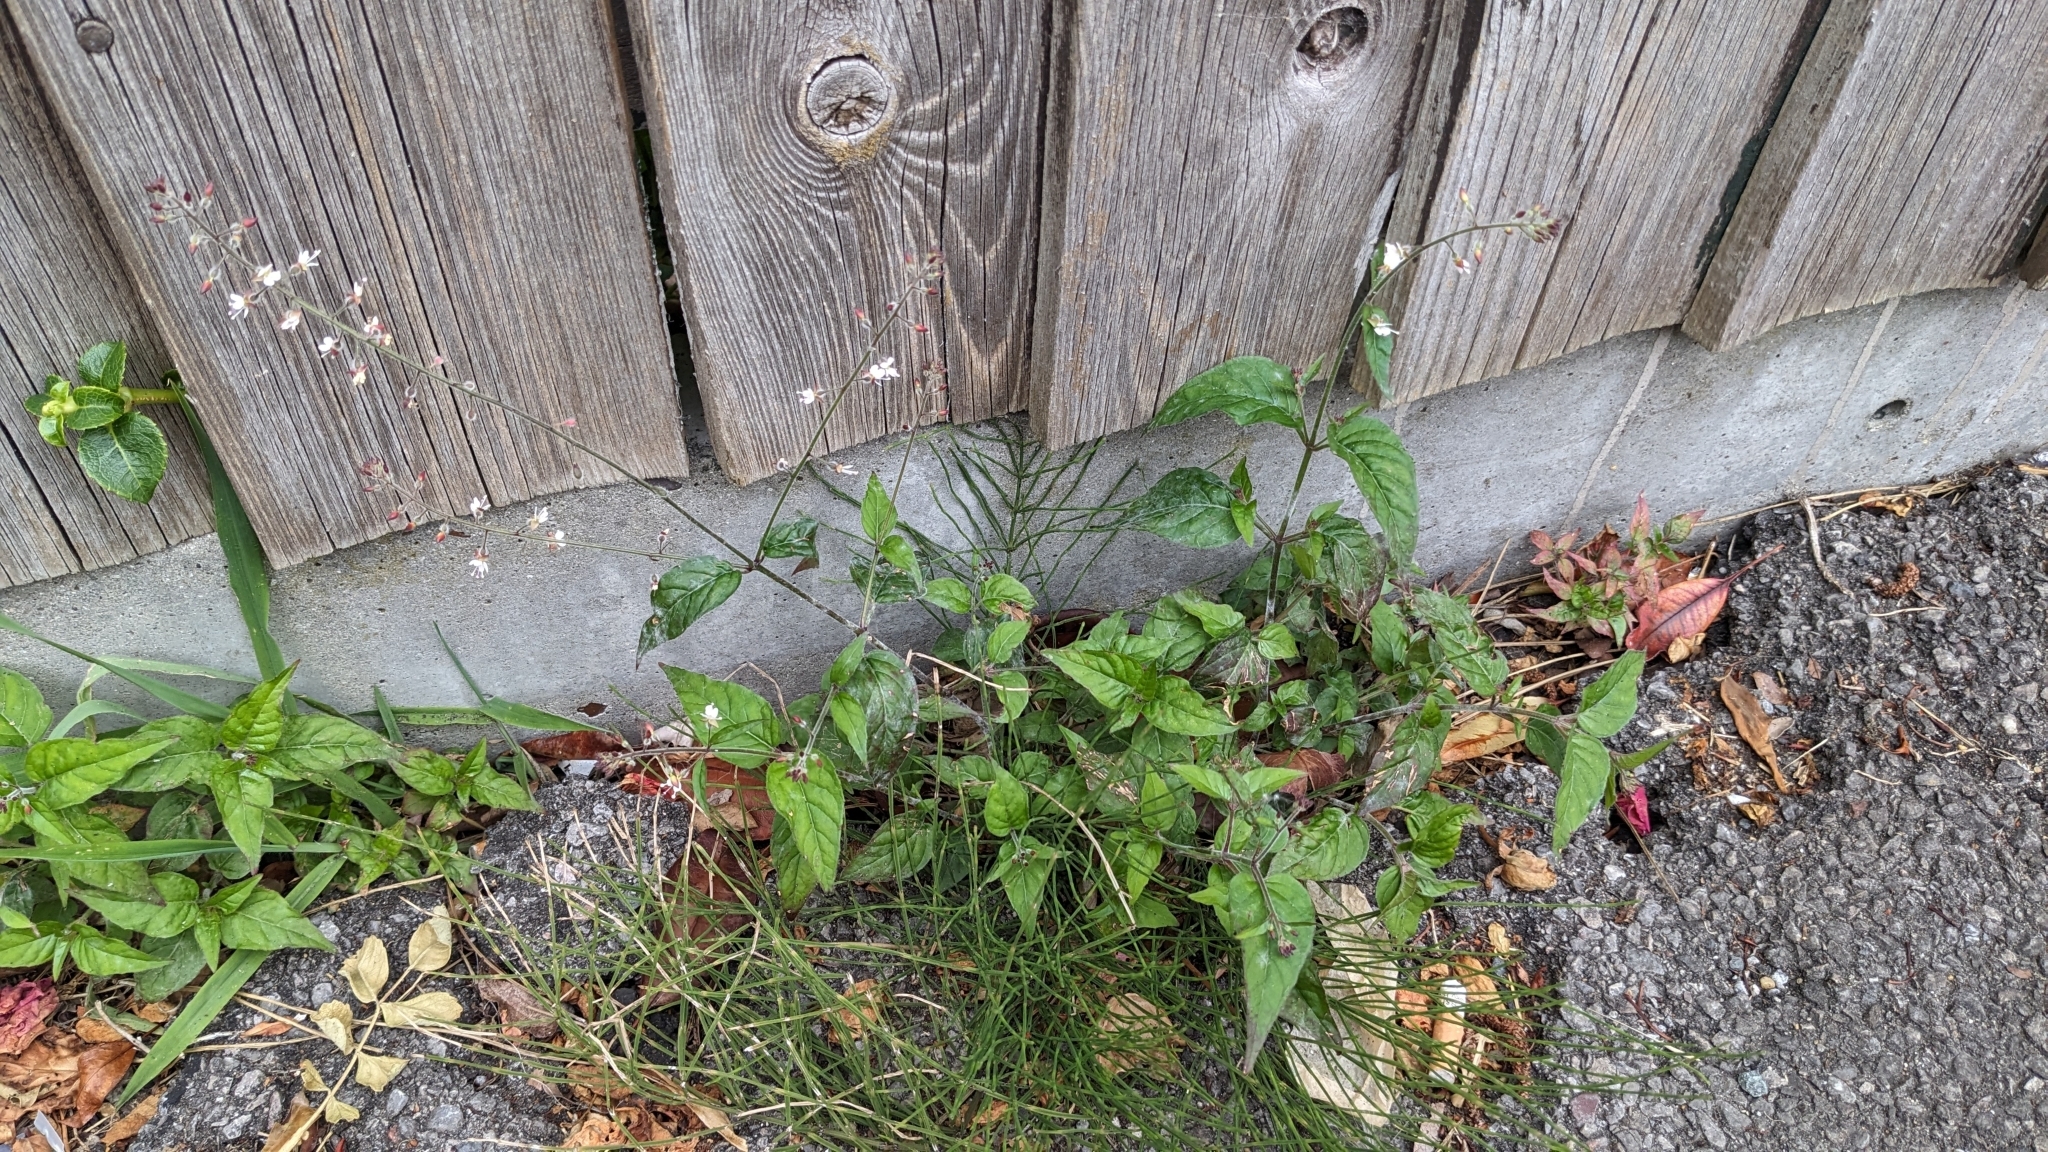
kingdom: Plantae
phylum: Tracheophyta
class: Magnoliopsida
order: Myrtales
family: Onagraceae
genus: Circaea
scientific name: Circaea lutetiana
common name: Enchanter's-nightshade
